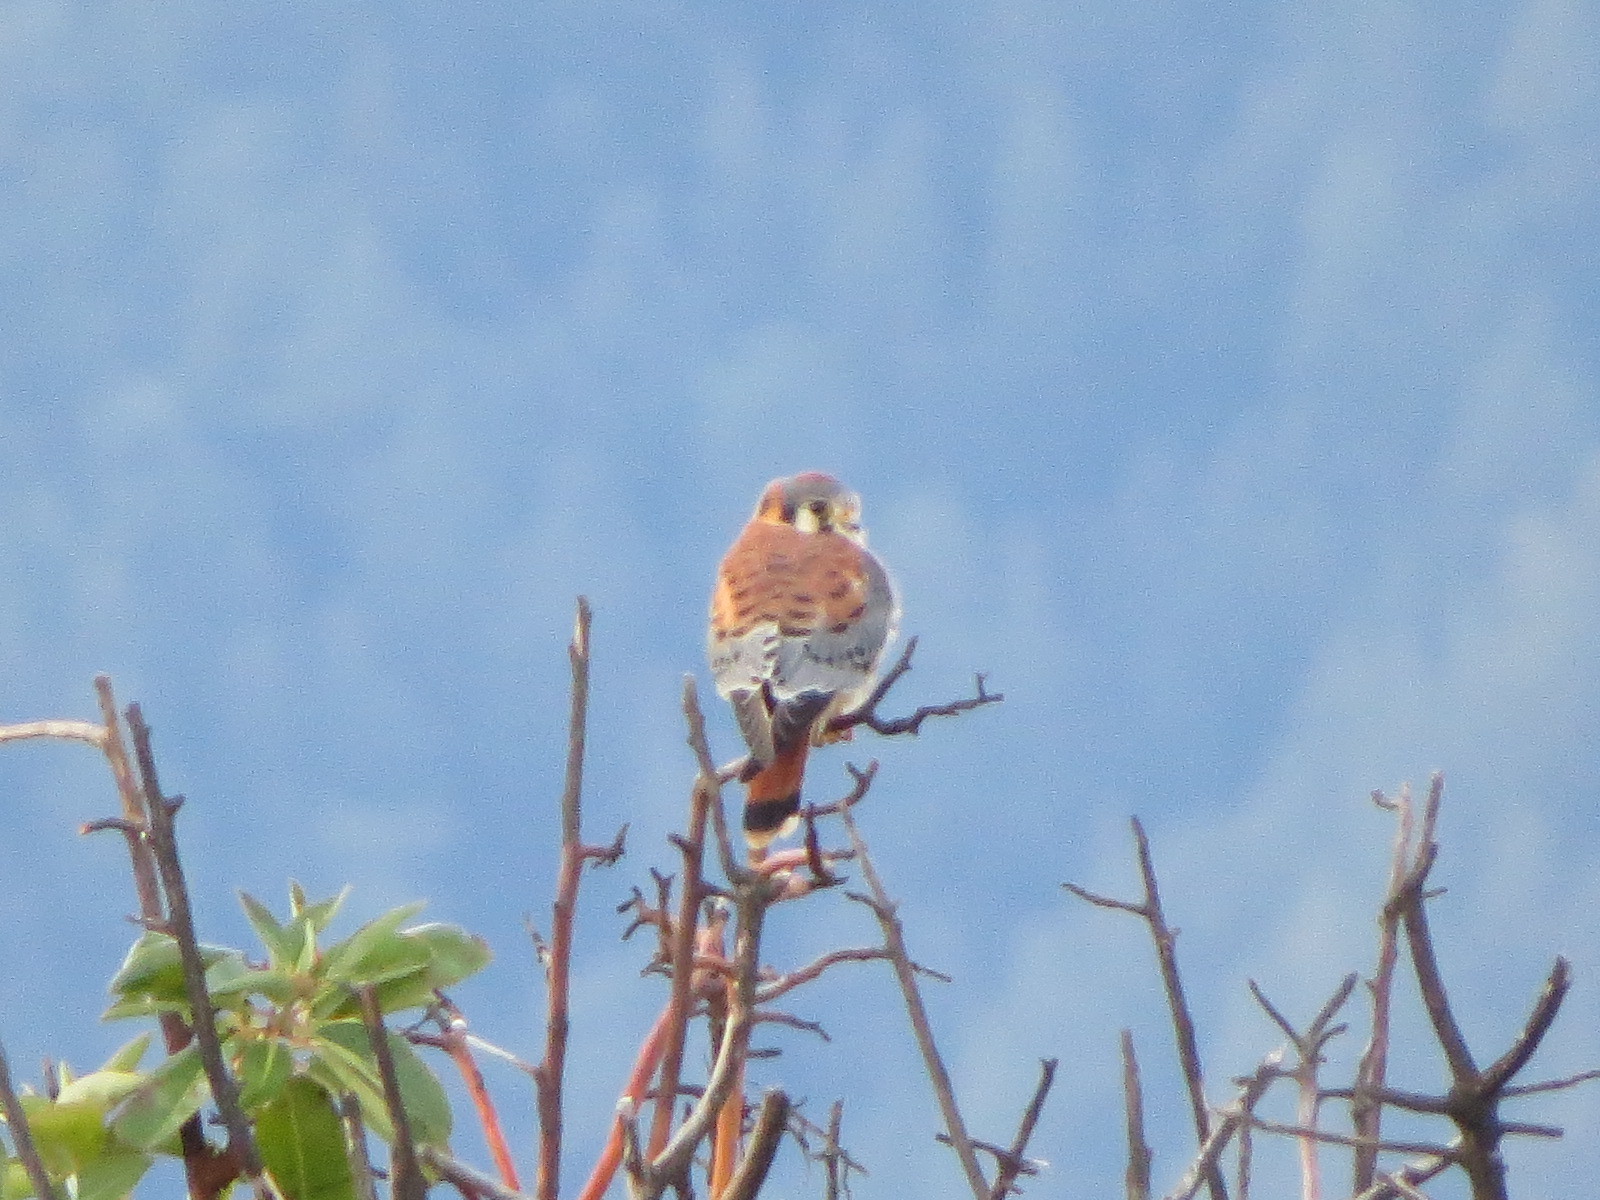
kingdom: Animalia
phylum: Chordata
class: Aves
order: Falconiformes
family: Falconidae
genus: Falco
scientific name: Falco sparverius
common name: American kestrel
